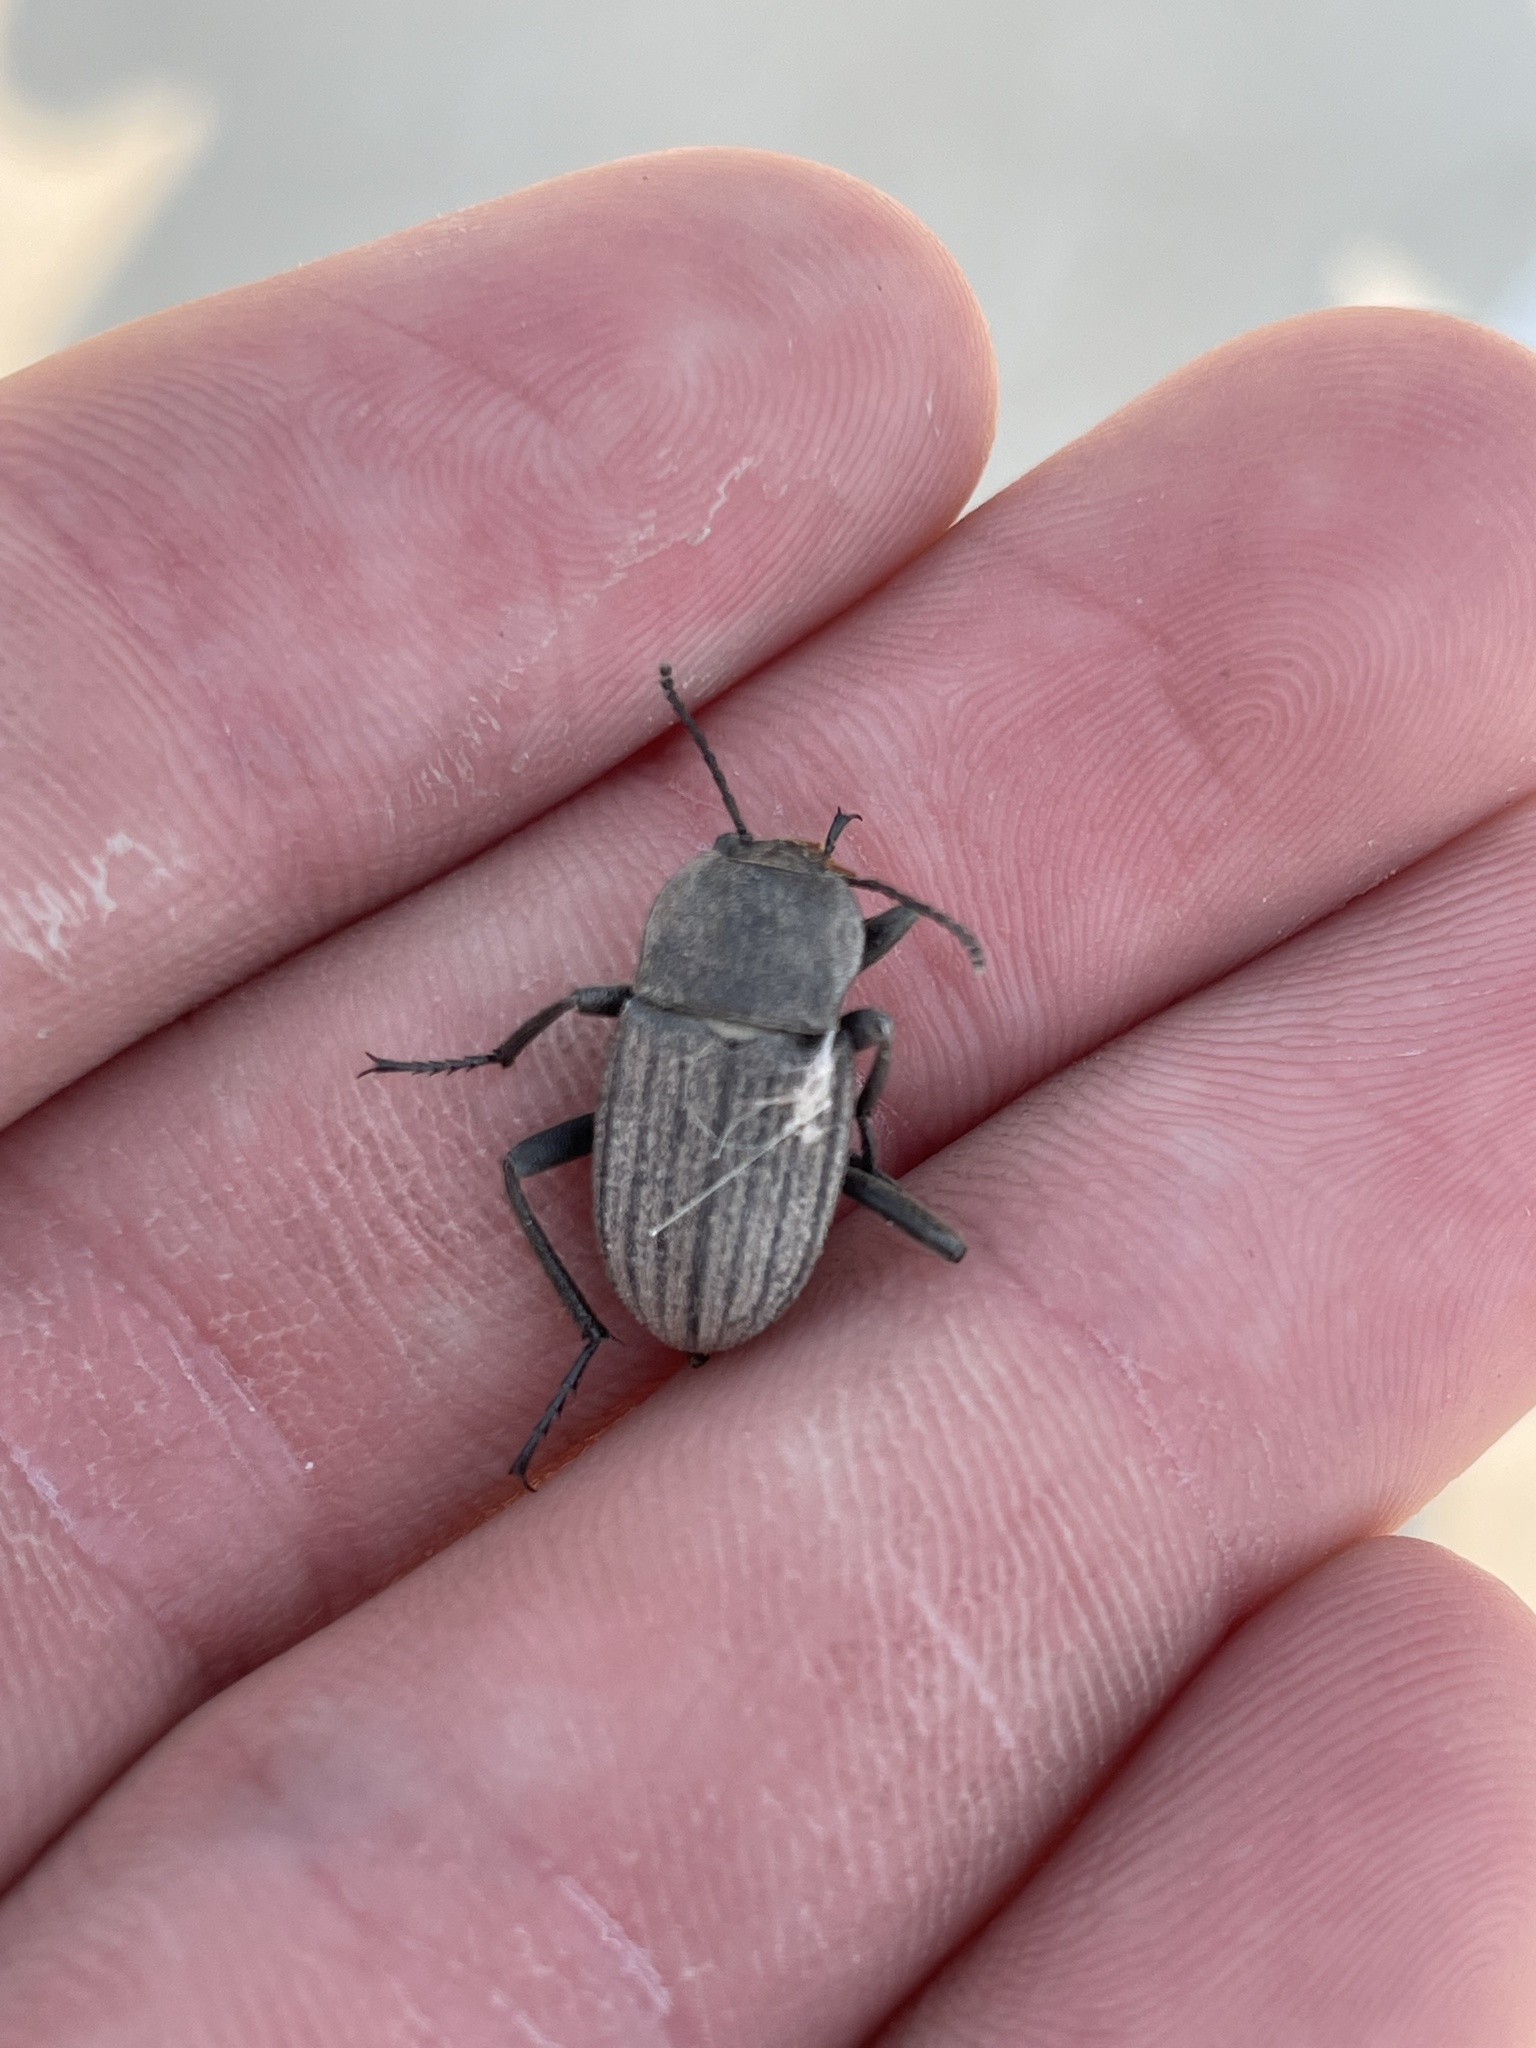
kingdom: Animalia
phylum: Arthropoda
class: Insecta
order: Coleoptera
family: Tenebrionidae
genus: Eleodes
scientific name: Eleodes tricostata
